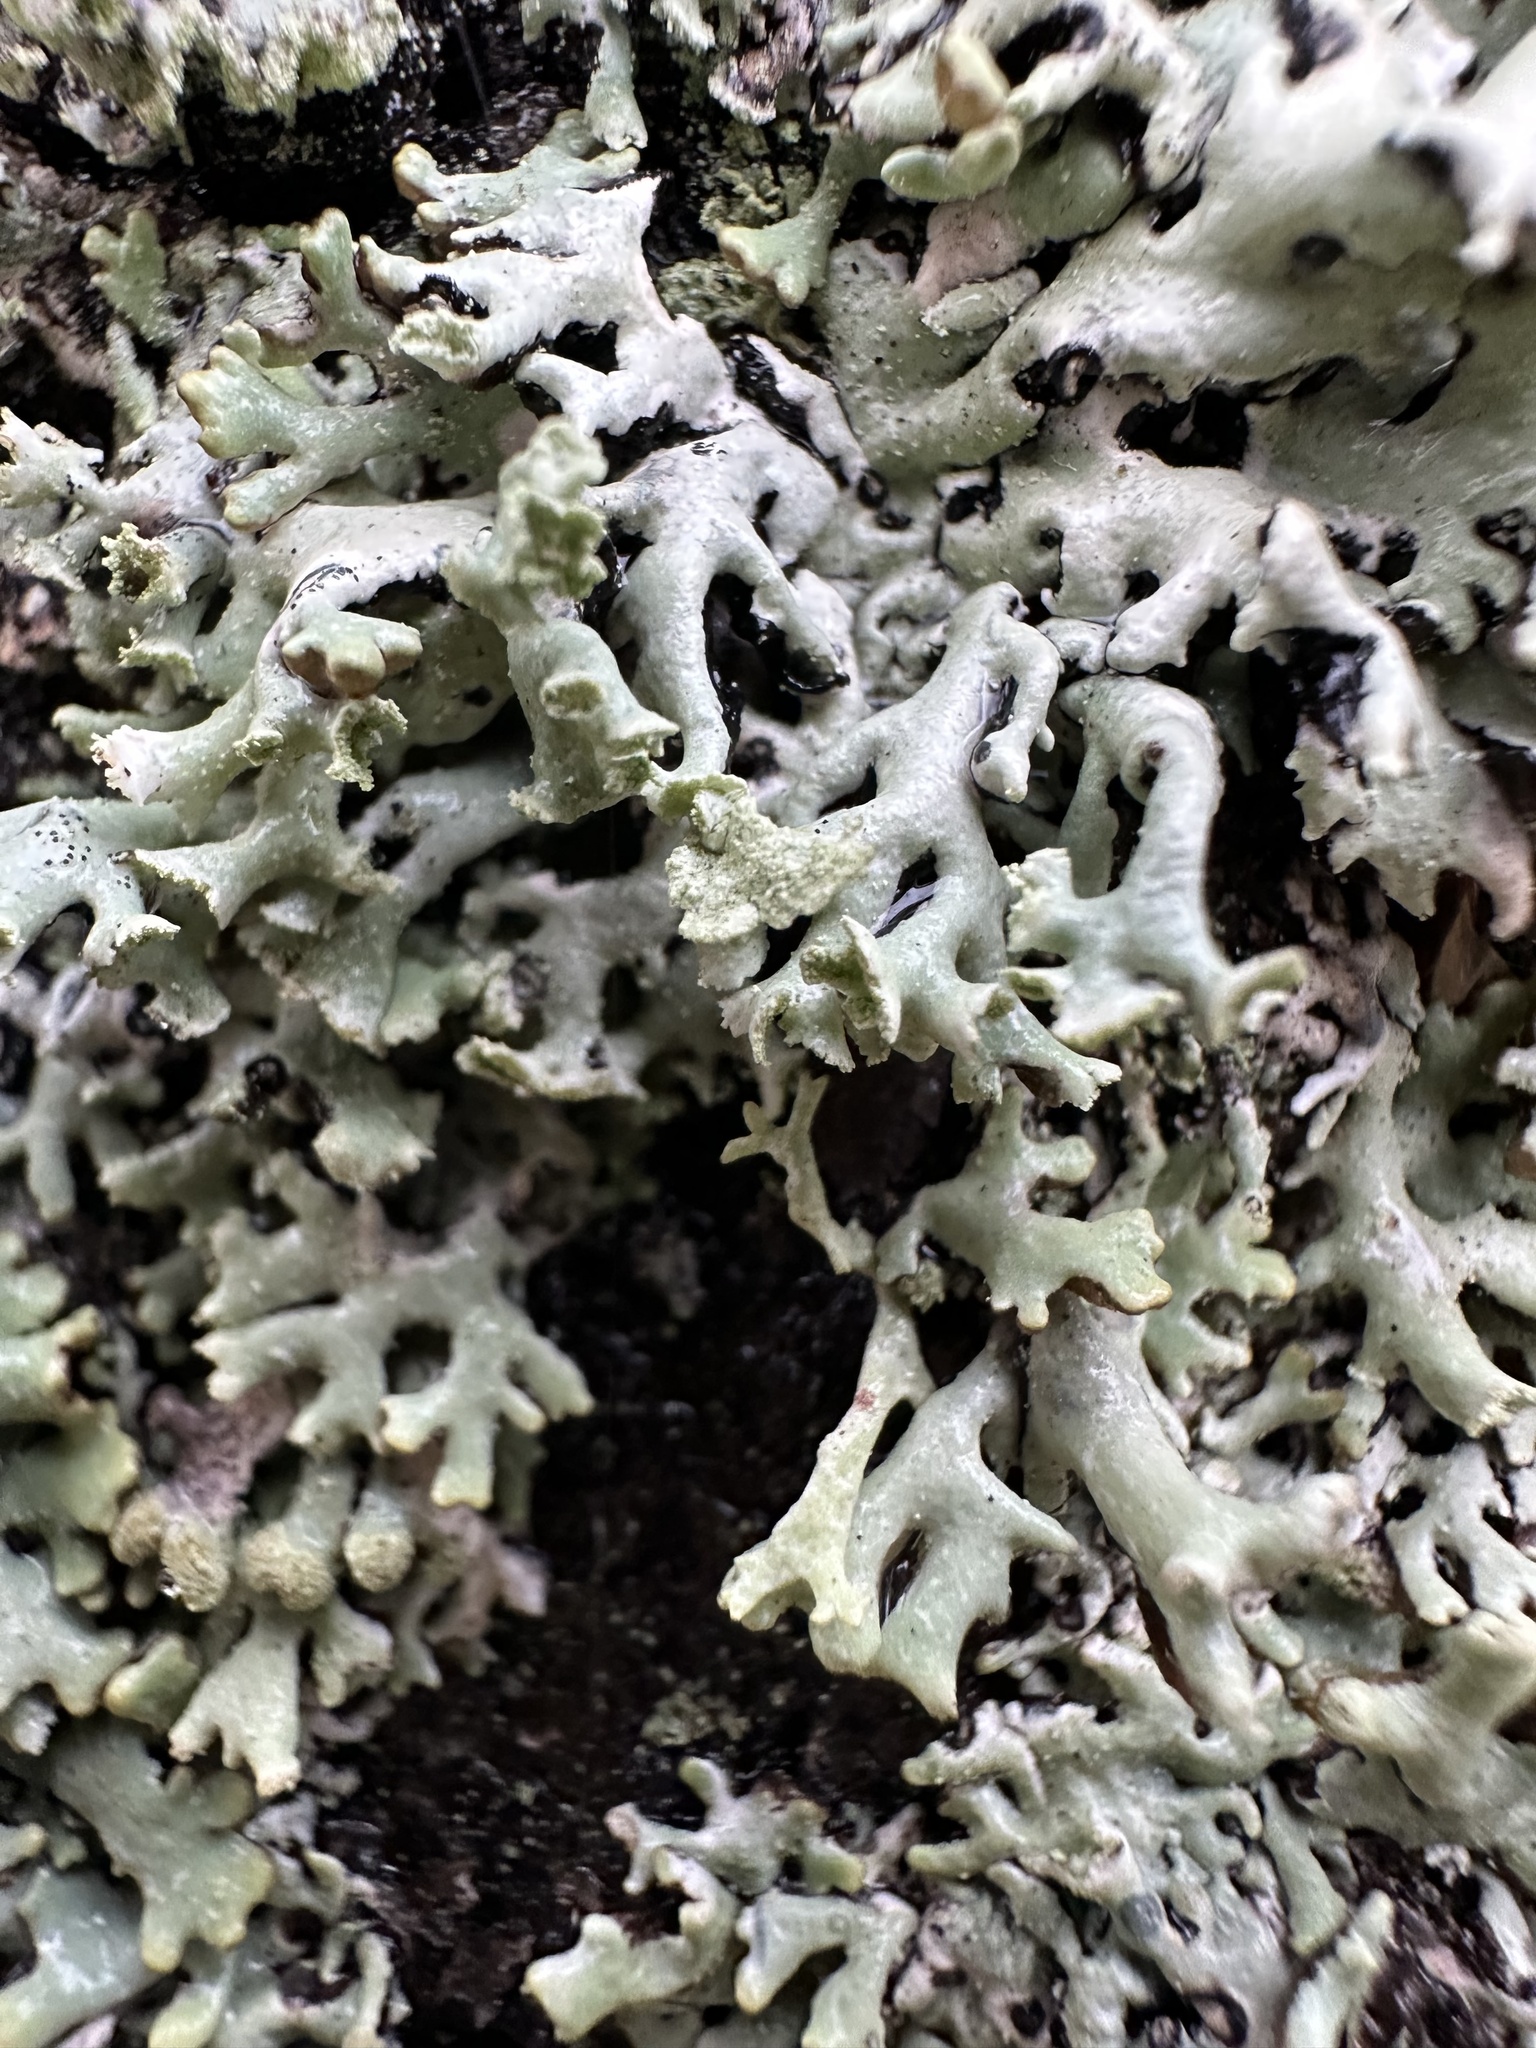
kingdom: Fungi
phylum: Ascomycota
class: Lecanoromycetes
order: Lecanorales
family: Parmeliaceae
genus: Hypogymnia
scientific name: Hypogymnia physodes
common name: Dark crottle
